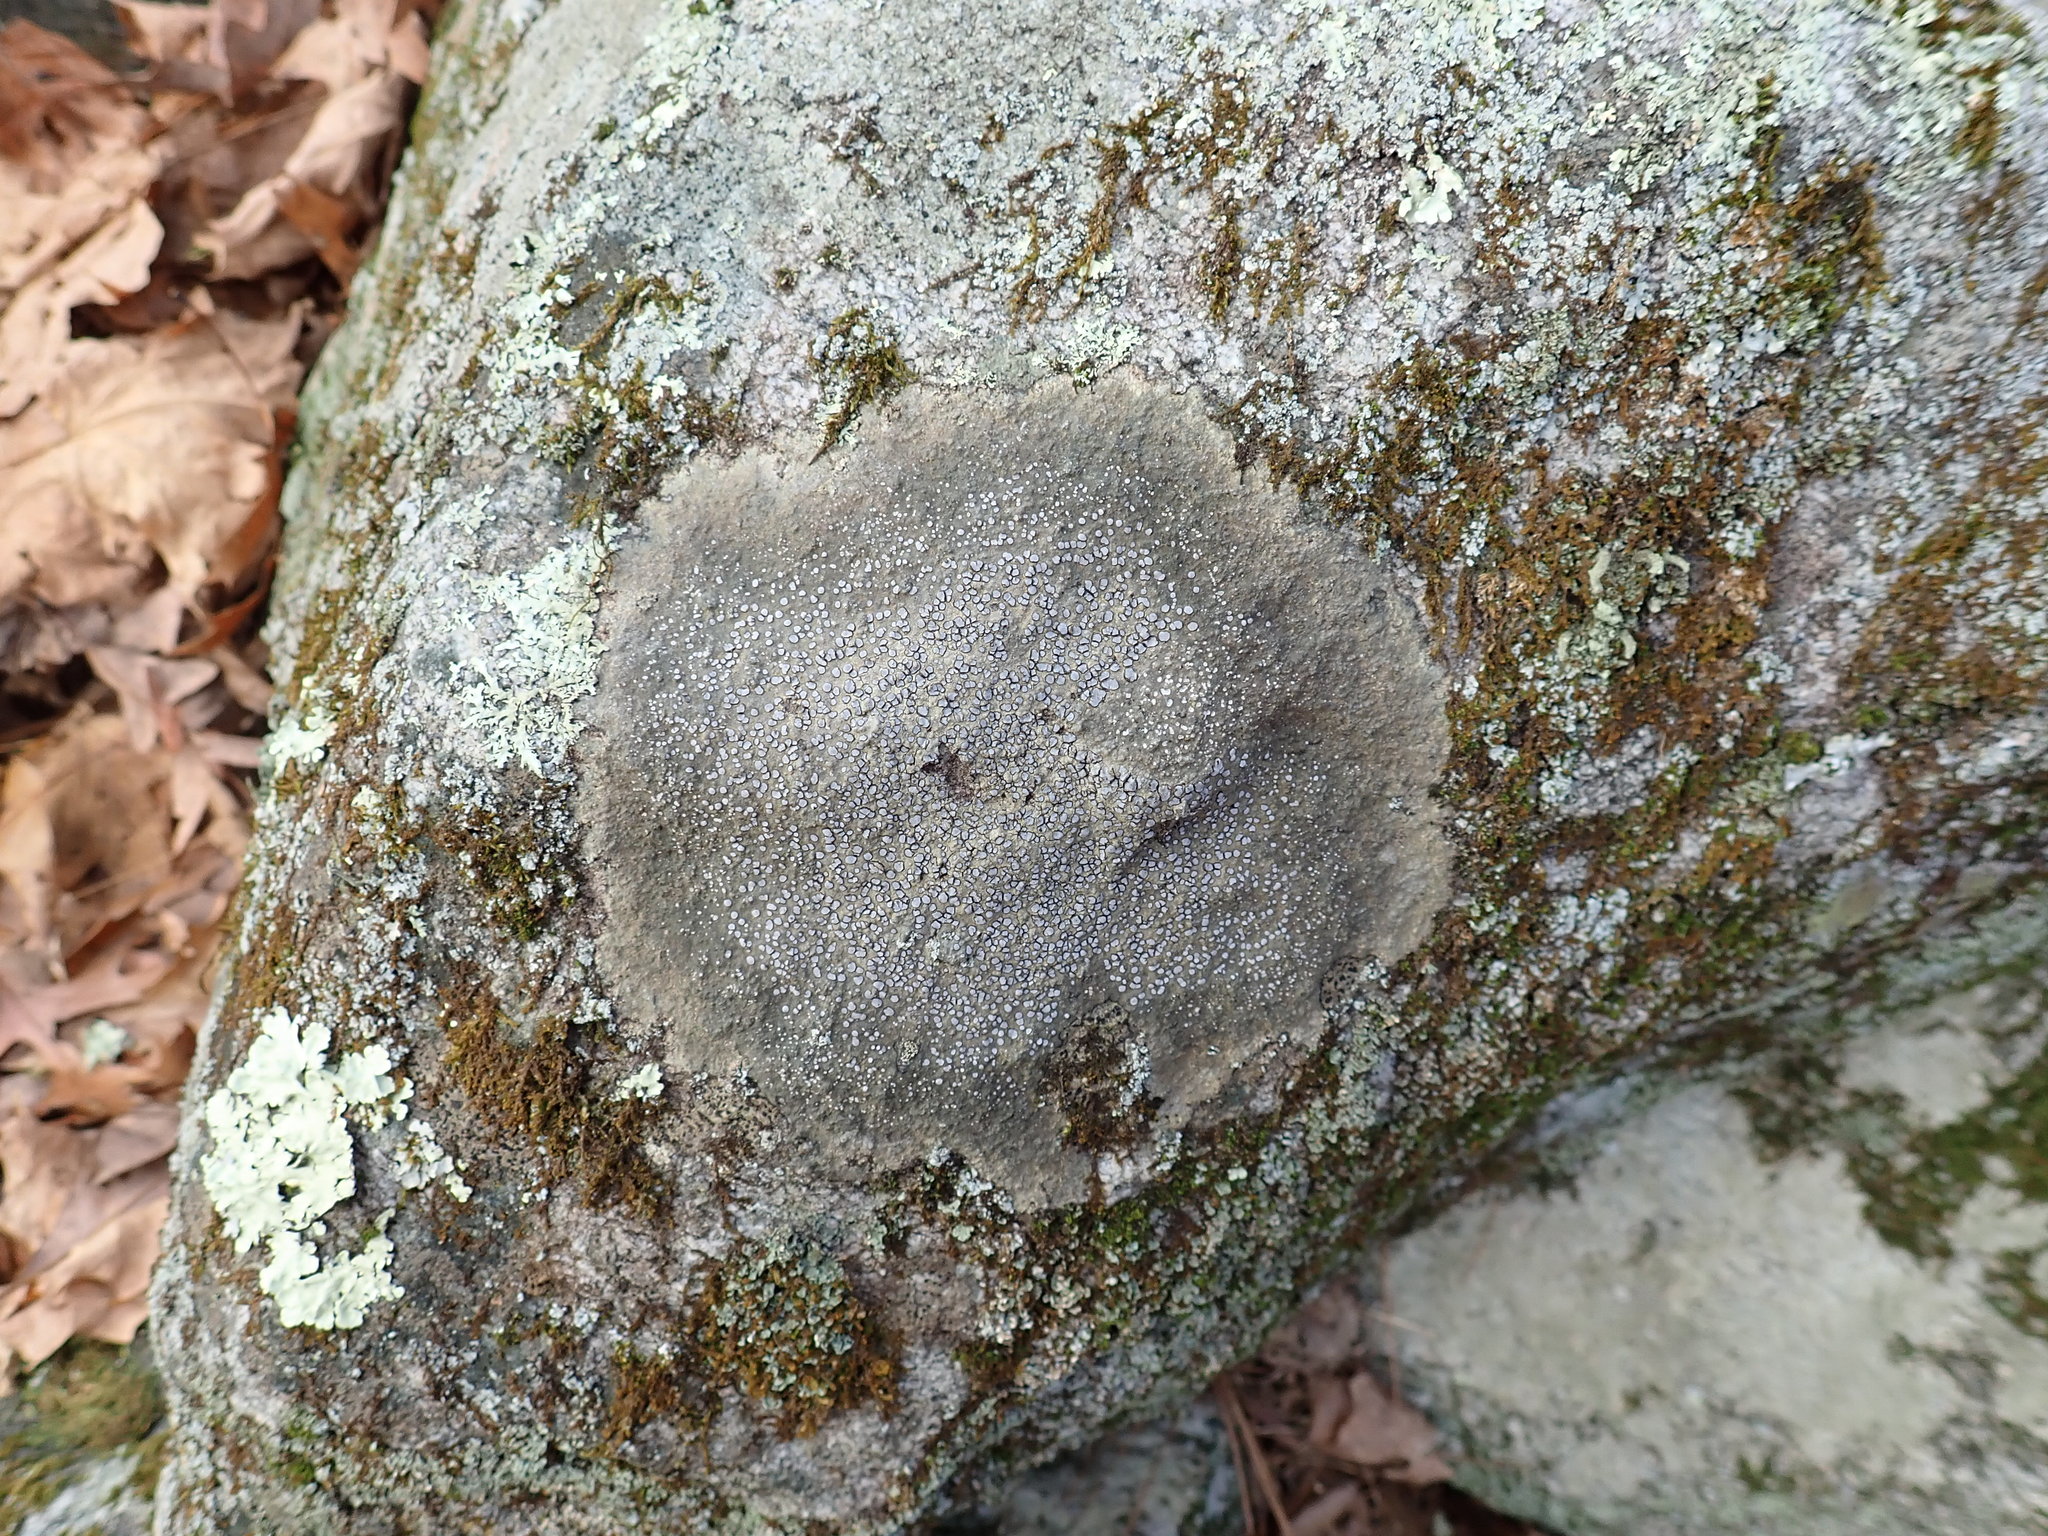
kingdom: Fungi
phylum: Ascomycota
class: Lecanoromycetes
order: Lecideales
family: Lecideaceae
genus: Porpidia
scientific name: Porpidia albocaerulescens
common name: Smokey-eyed boulder lichen
